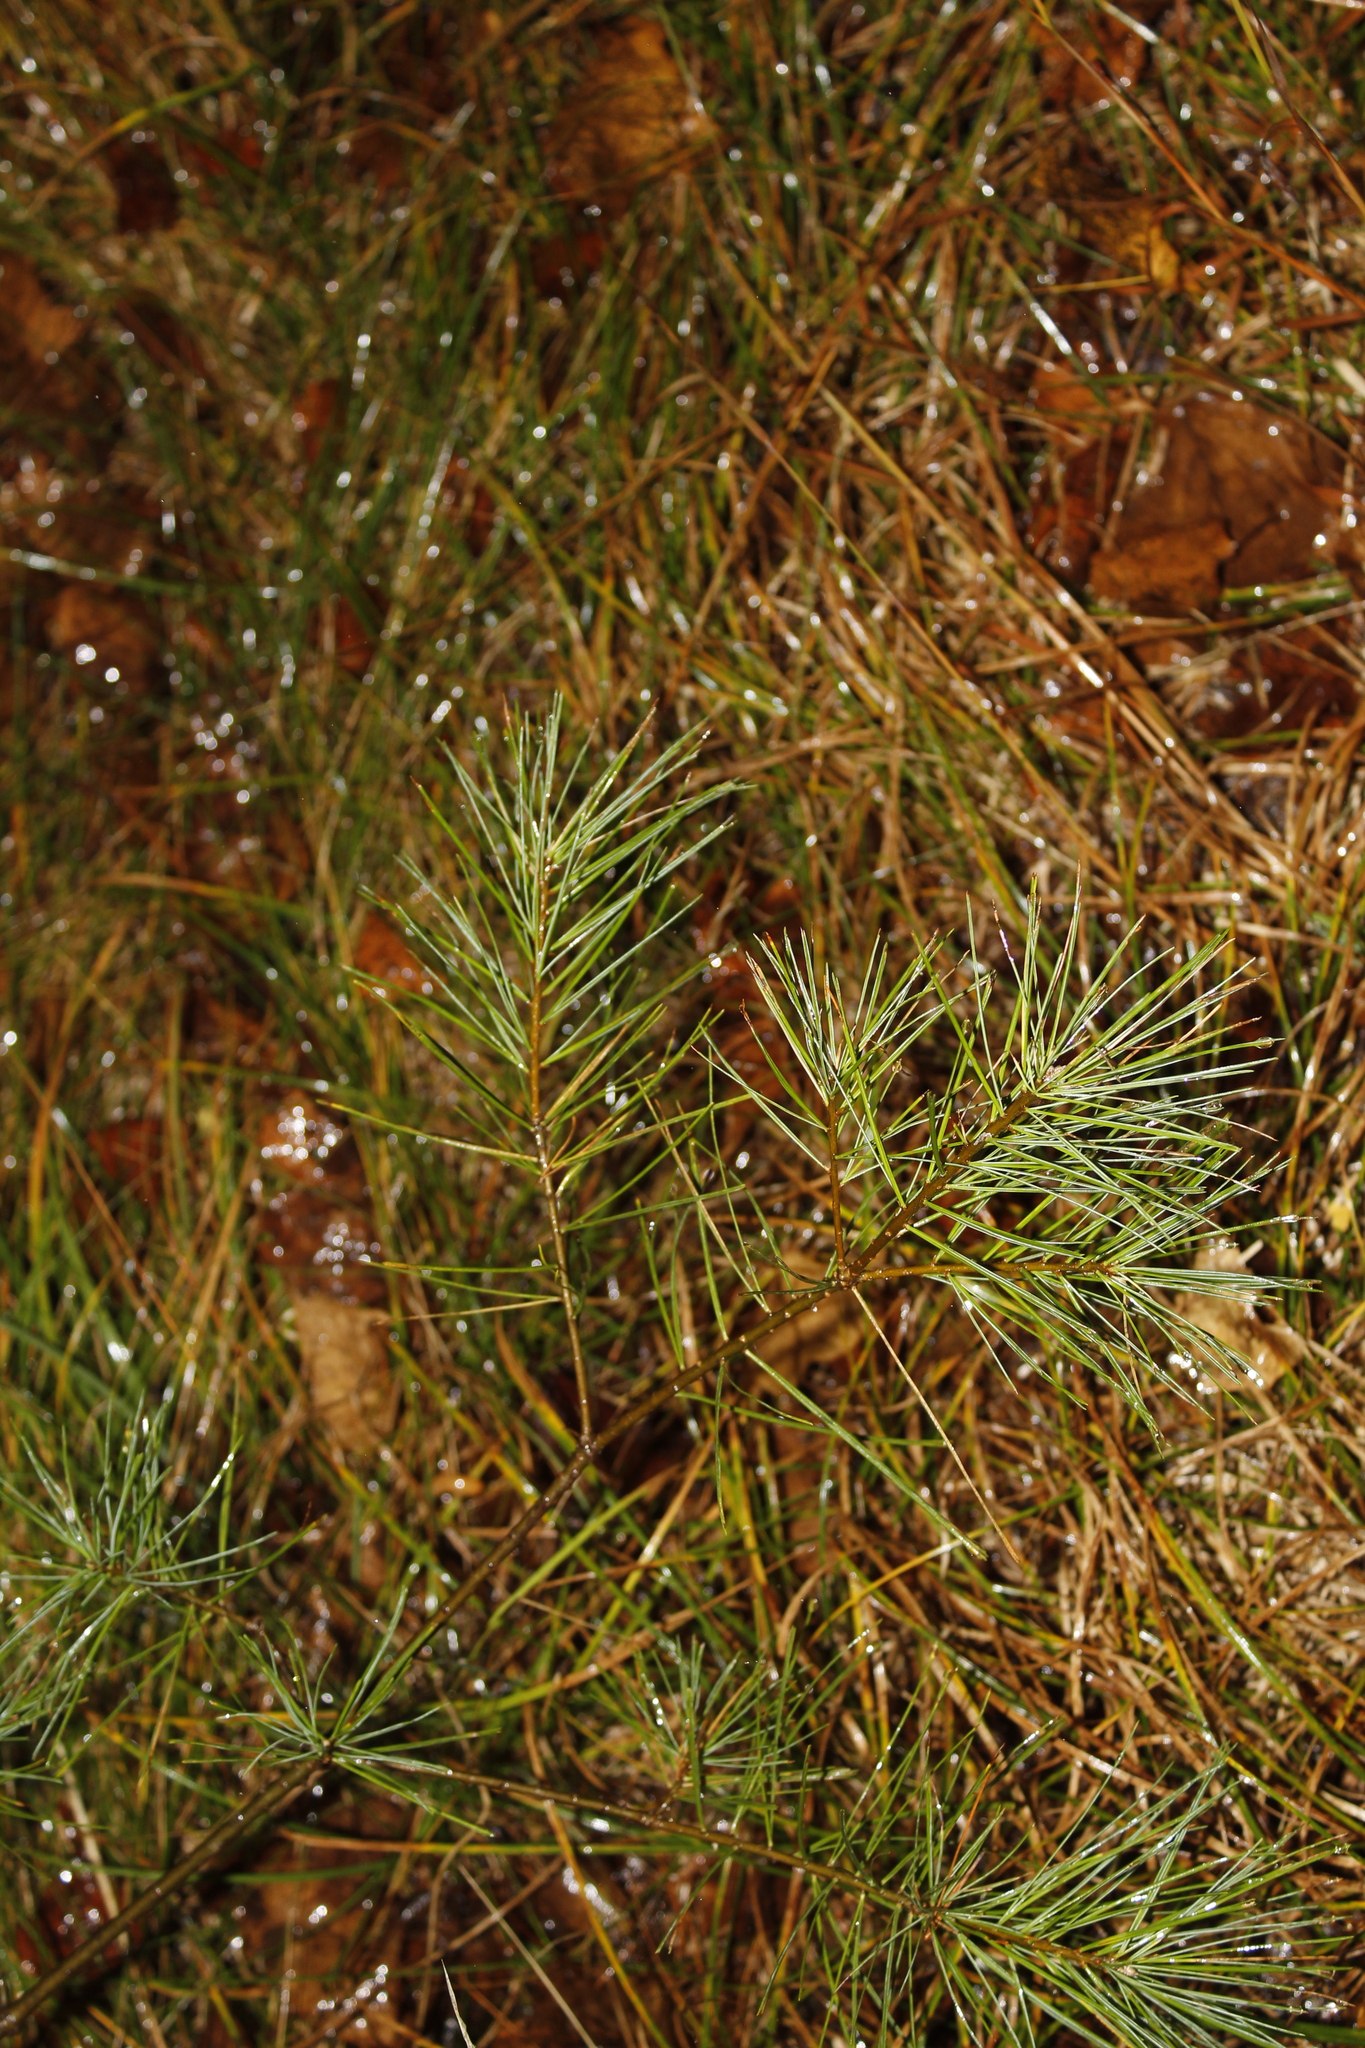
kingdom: Plantae
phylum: Tracheophyta
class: Pinopsida
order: Pinales
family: Pinaceae
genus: Pinus
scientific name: Pinus strobus
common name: Weymouth pine
